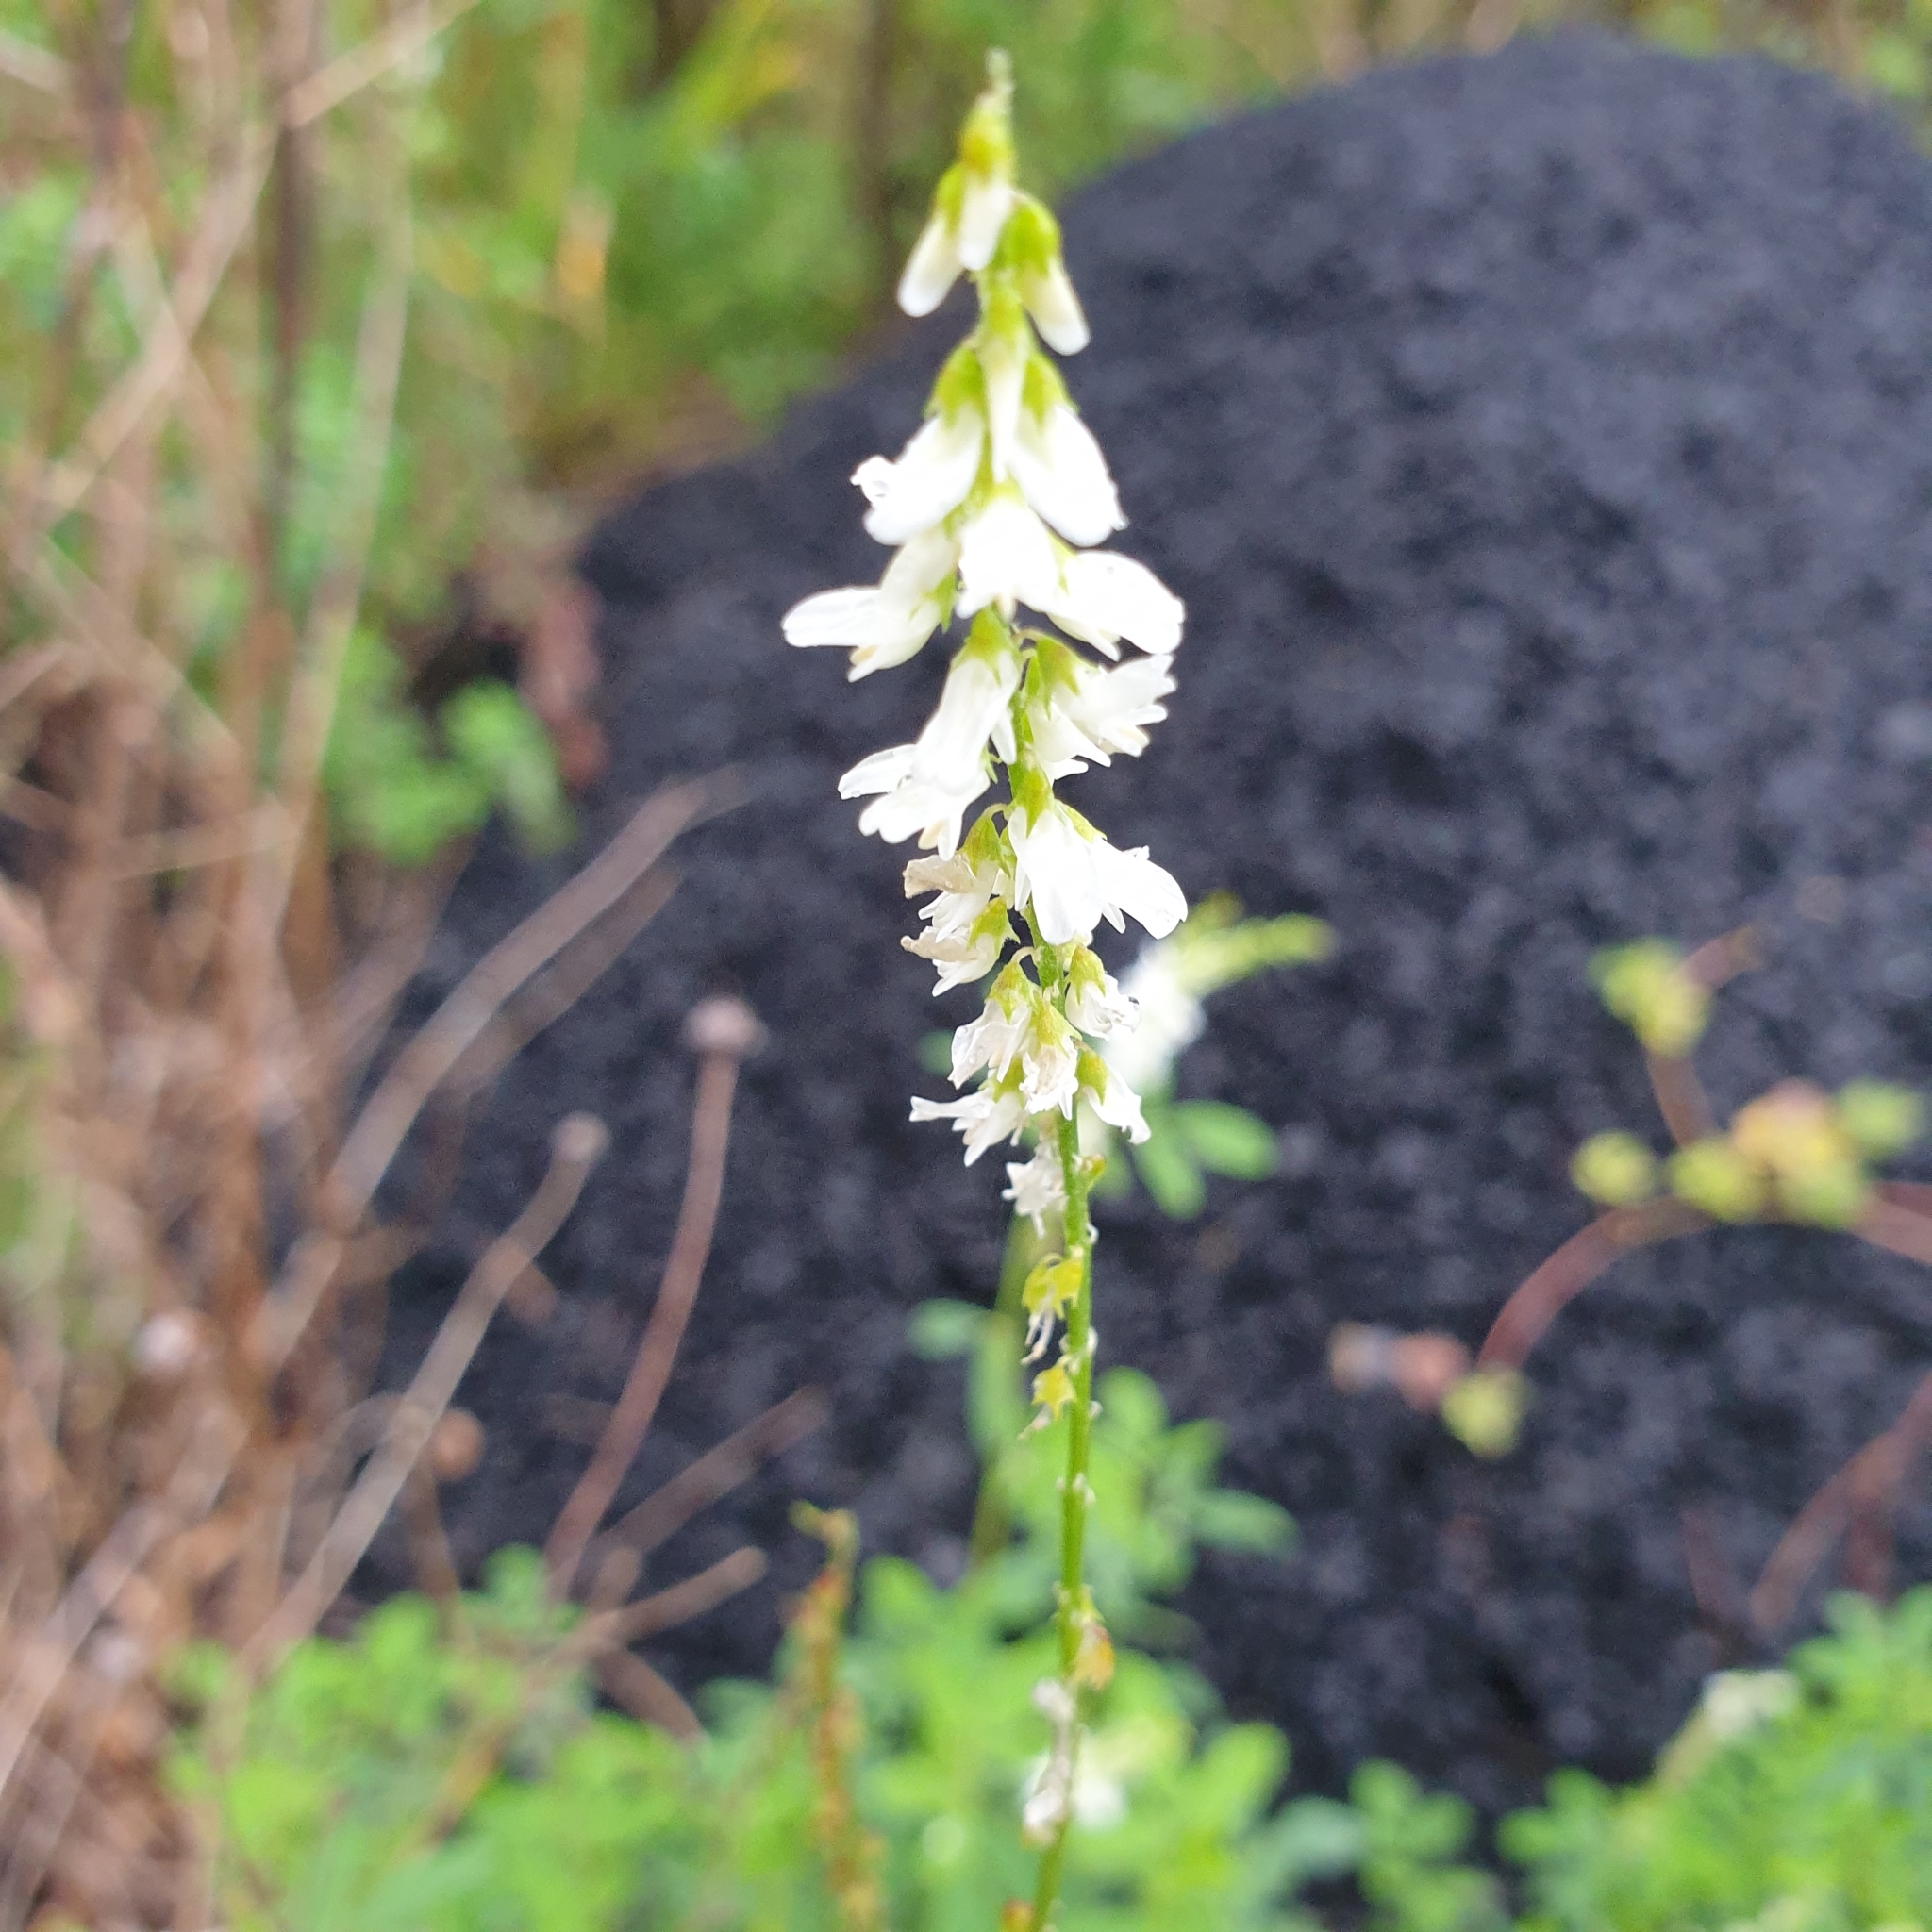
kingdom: Plantae
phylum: Tracheophyta
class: Magnoliopsida
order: Fabales
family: Fabaceae
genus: Melilotus
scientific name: Melilotus albus
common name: White melilot
